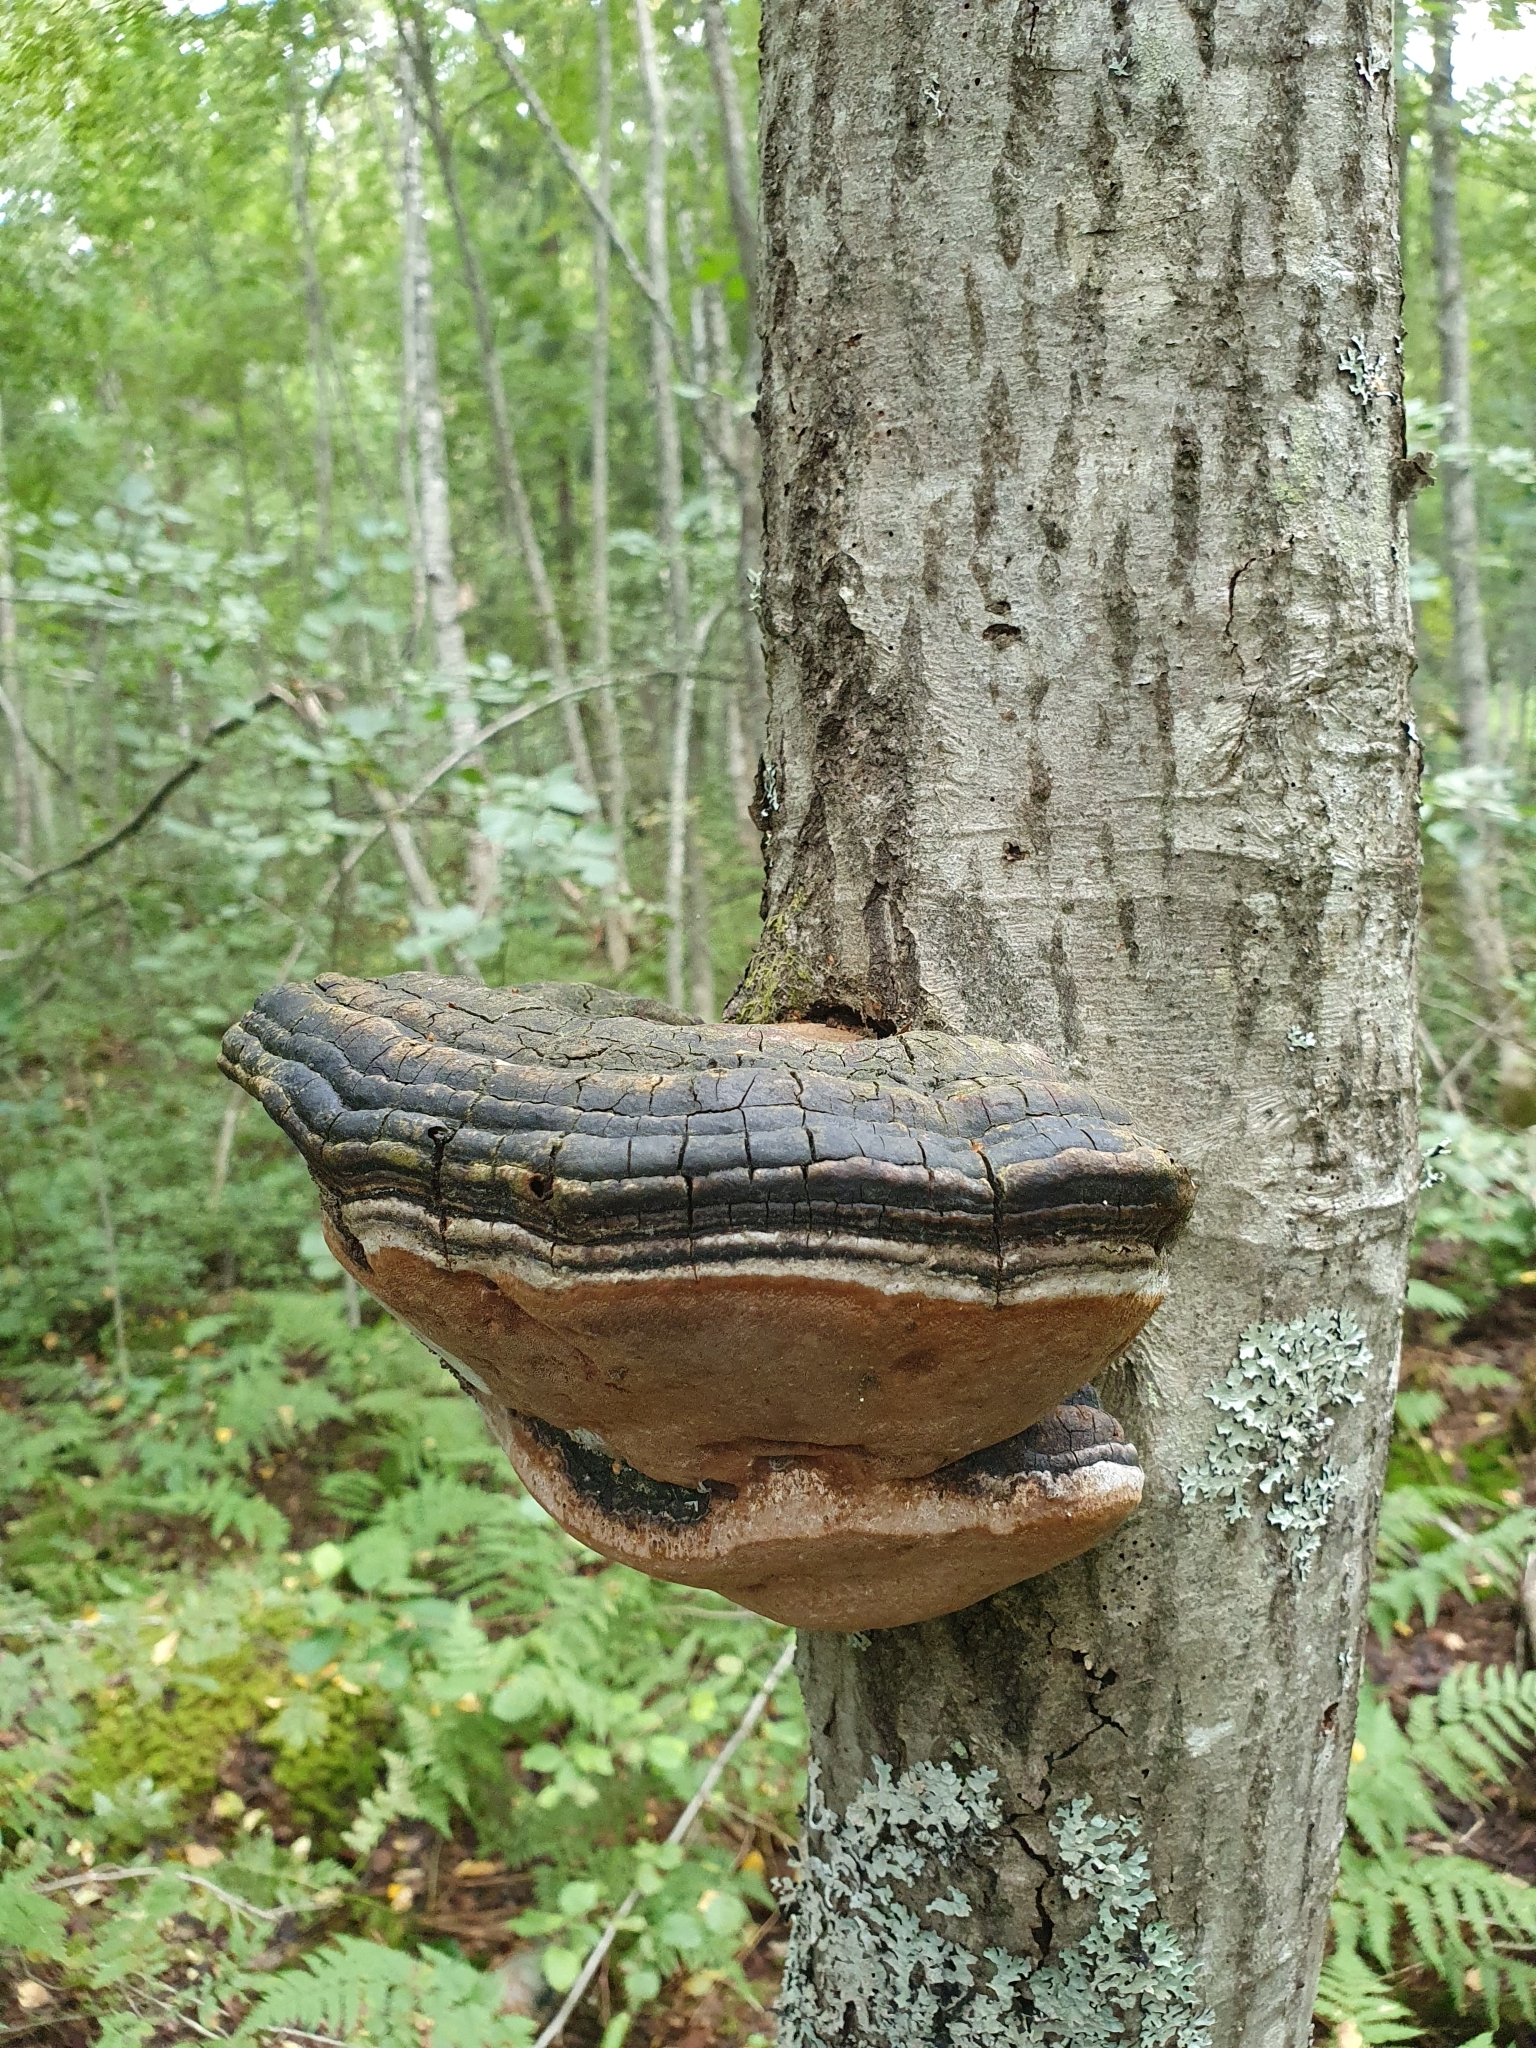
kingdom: Fungi
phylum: Basidiomycota
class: Agaricomycetes
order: Hymenochaetales
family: Hymenochaetaceae
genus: Phellinus
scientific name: Phellinus igniarius
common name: Willow bracket
